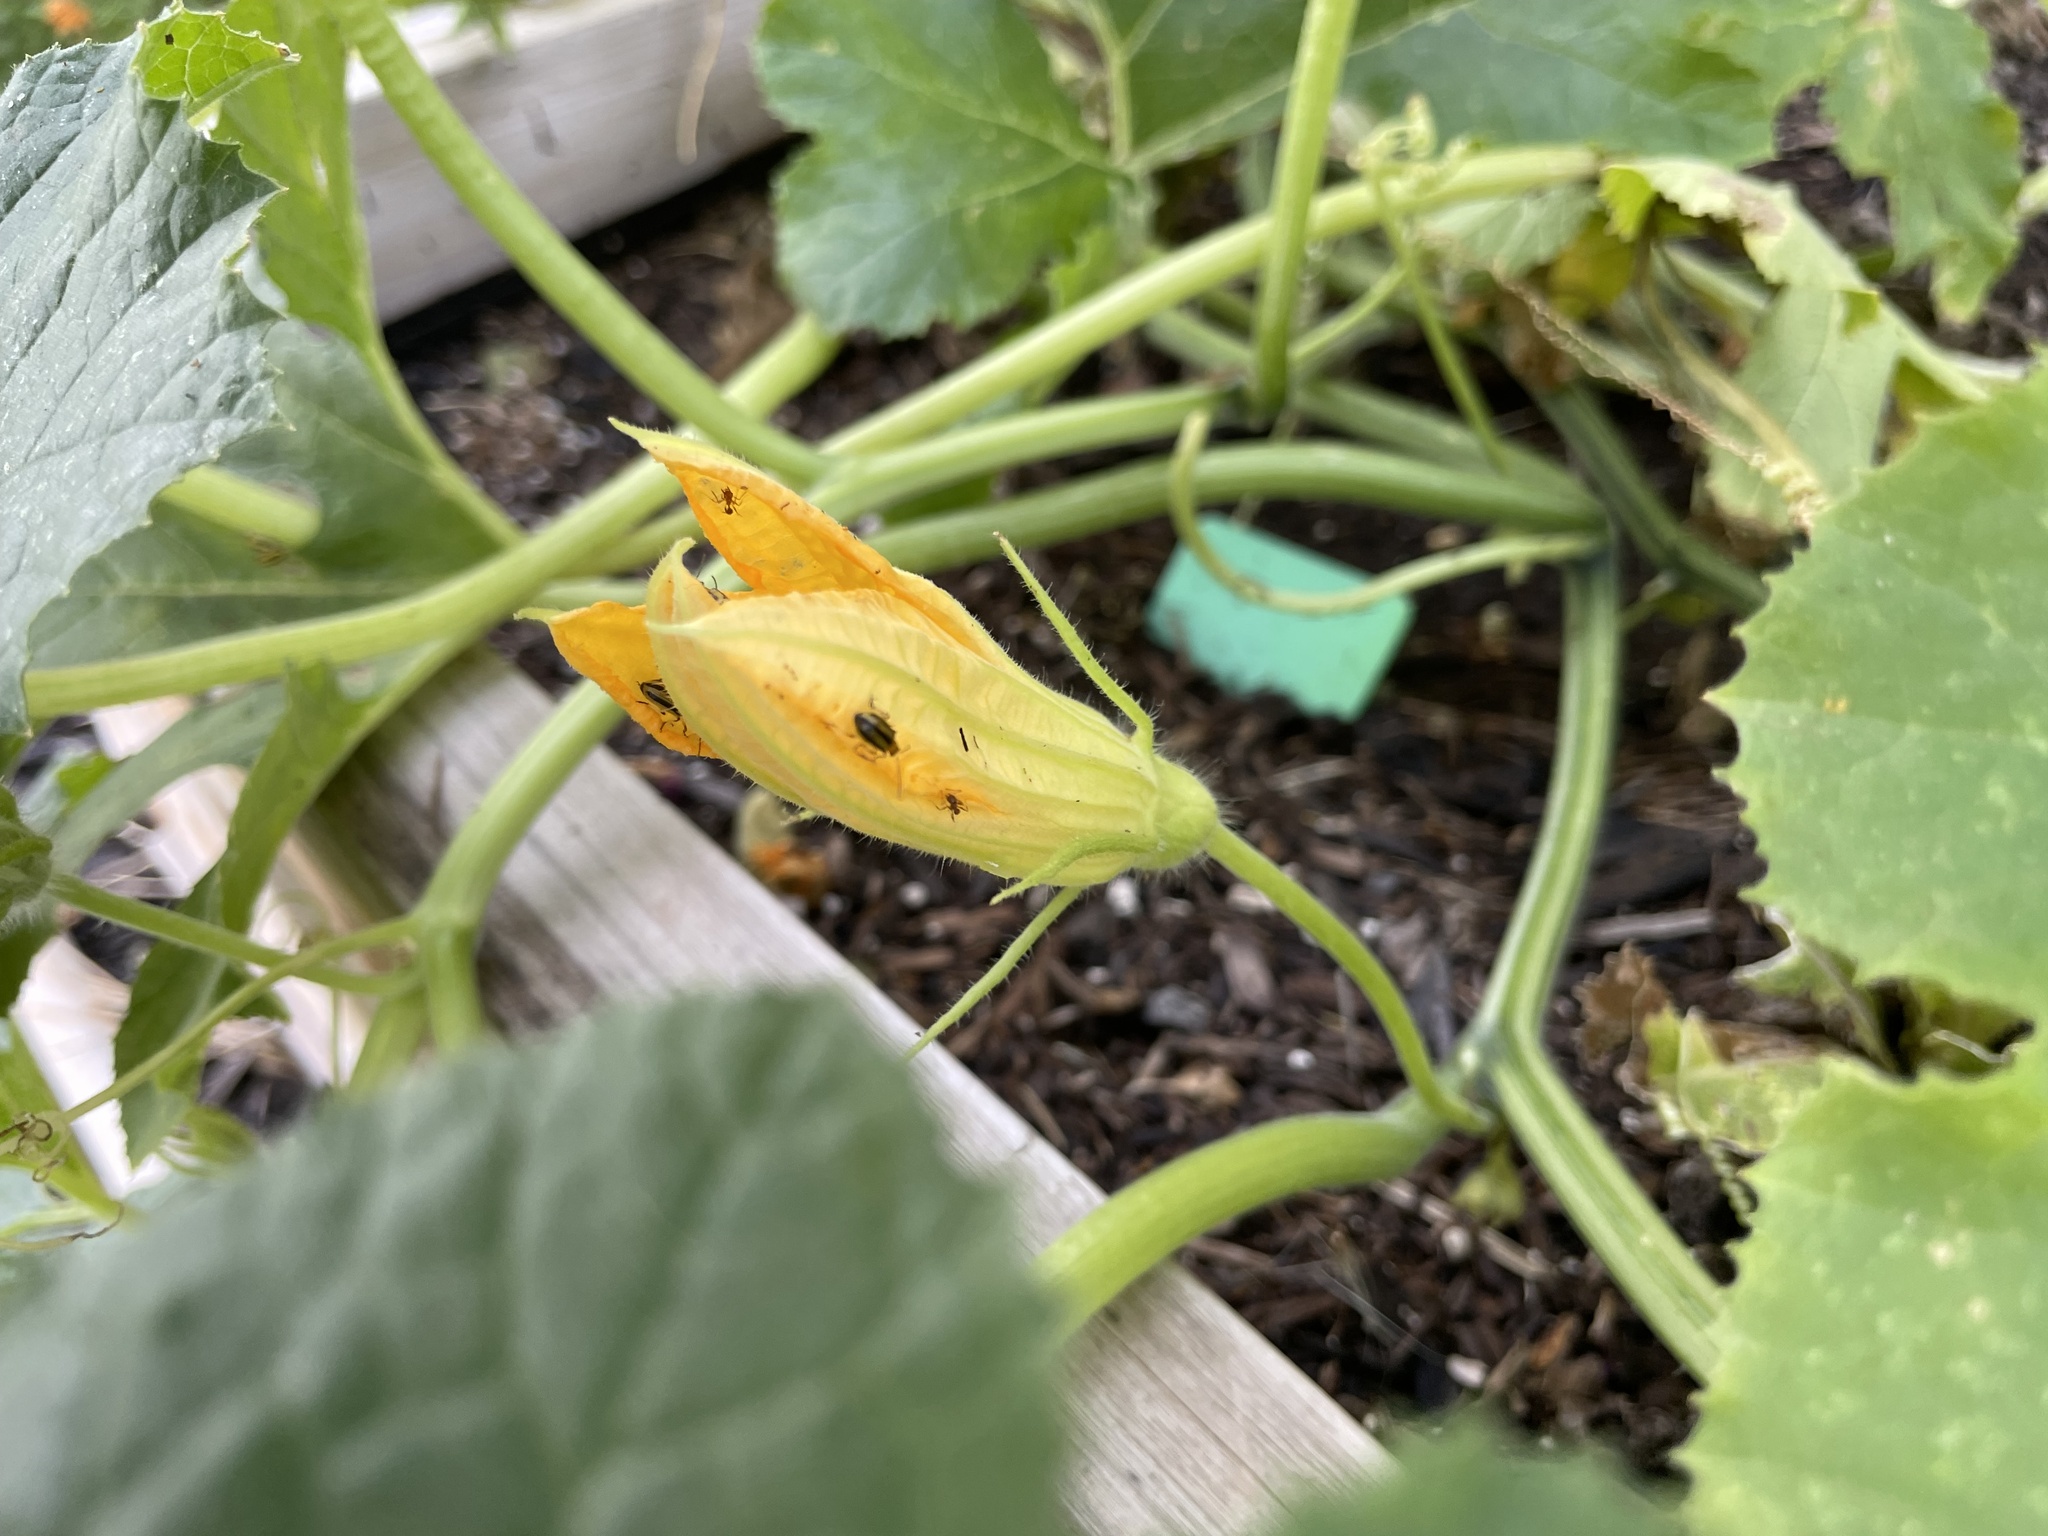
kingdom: Animalia
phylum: Arthropoda
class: Insecta
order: Coleoptera
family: Chrysomelidae
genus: Acalymma
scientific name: Acalymma vittatum
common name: Striped cucumber beetle
